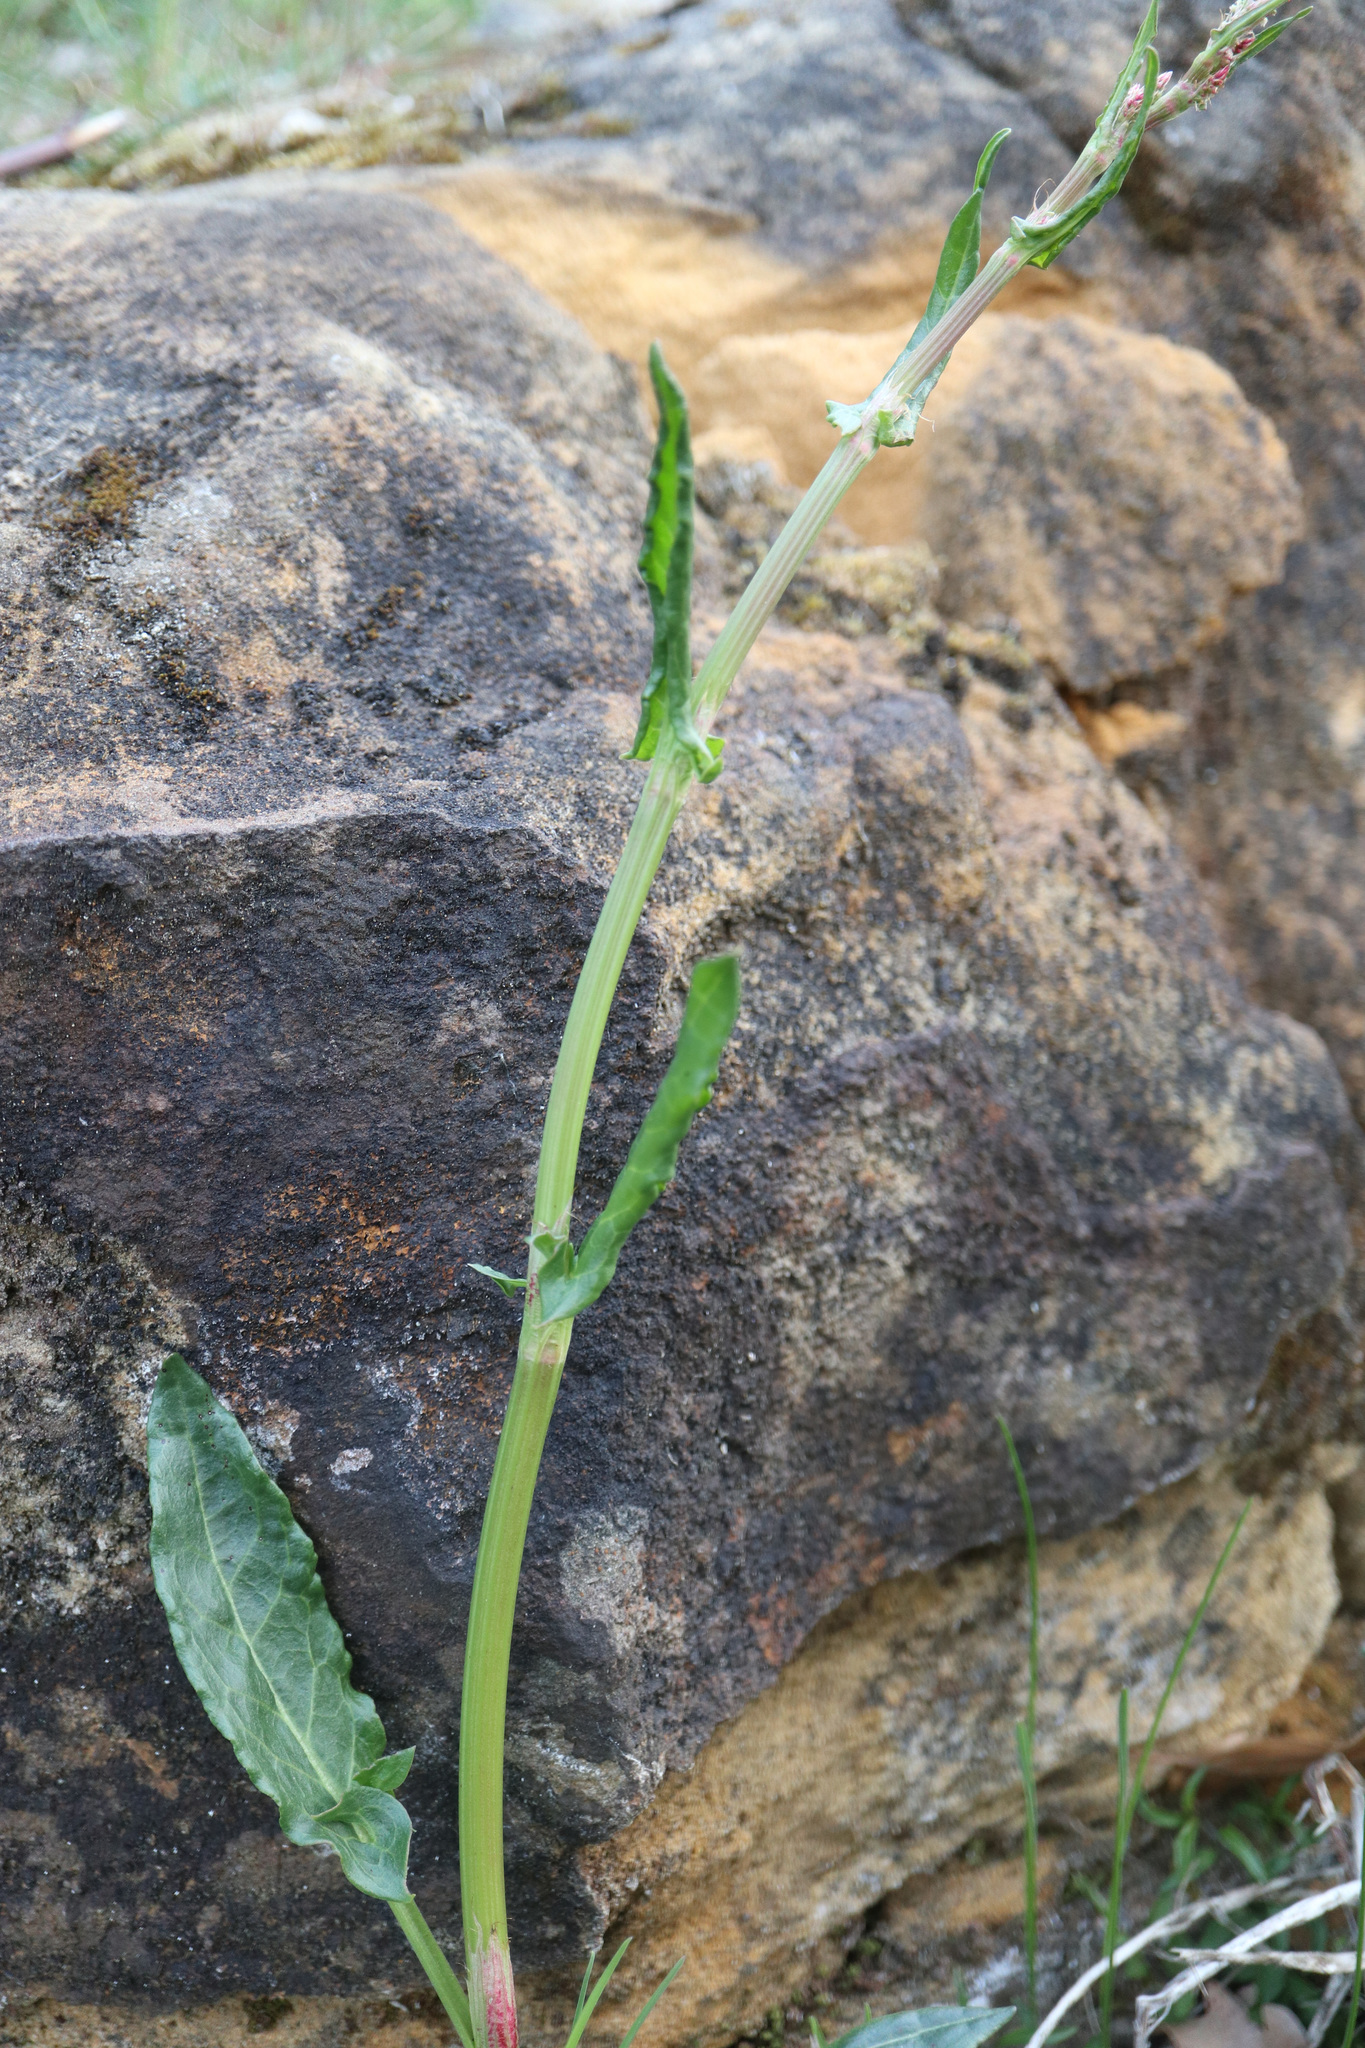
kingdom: Plantae
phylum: Tracheophyta
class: Magnoliopsida
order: Caryophyllales
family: Polygonaceae
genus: Rumex
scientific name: Rumex acetosa
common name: Garden sorrel
